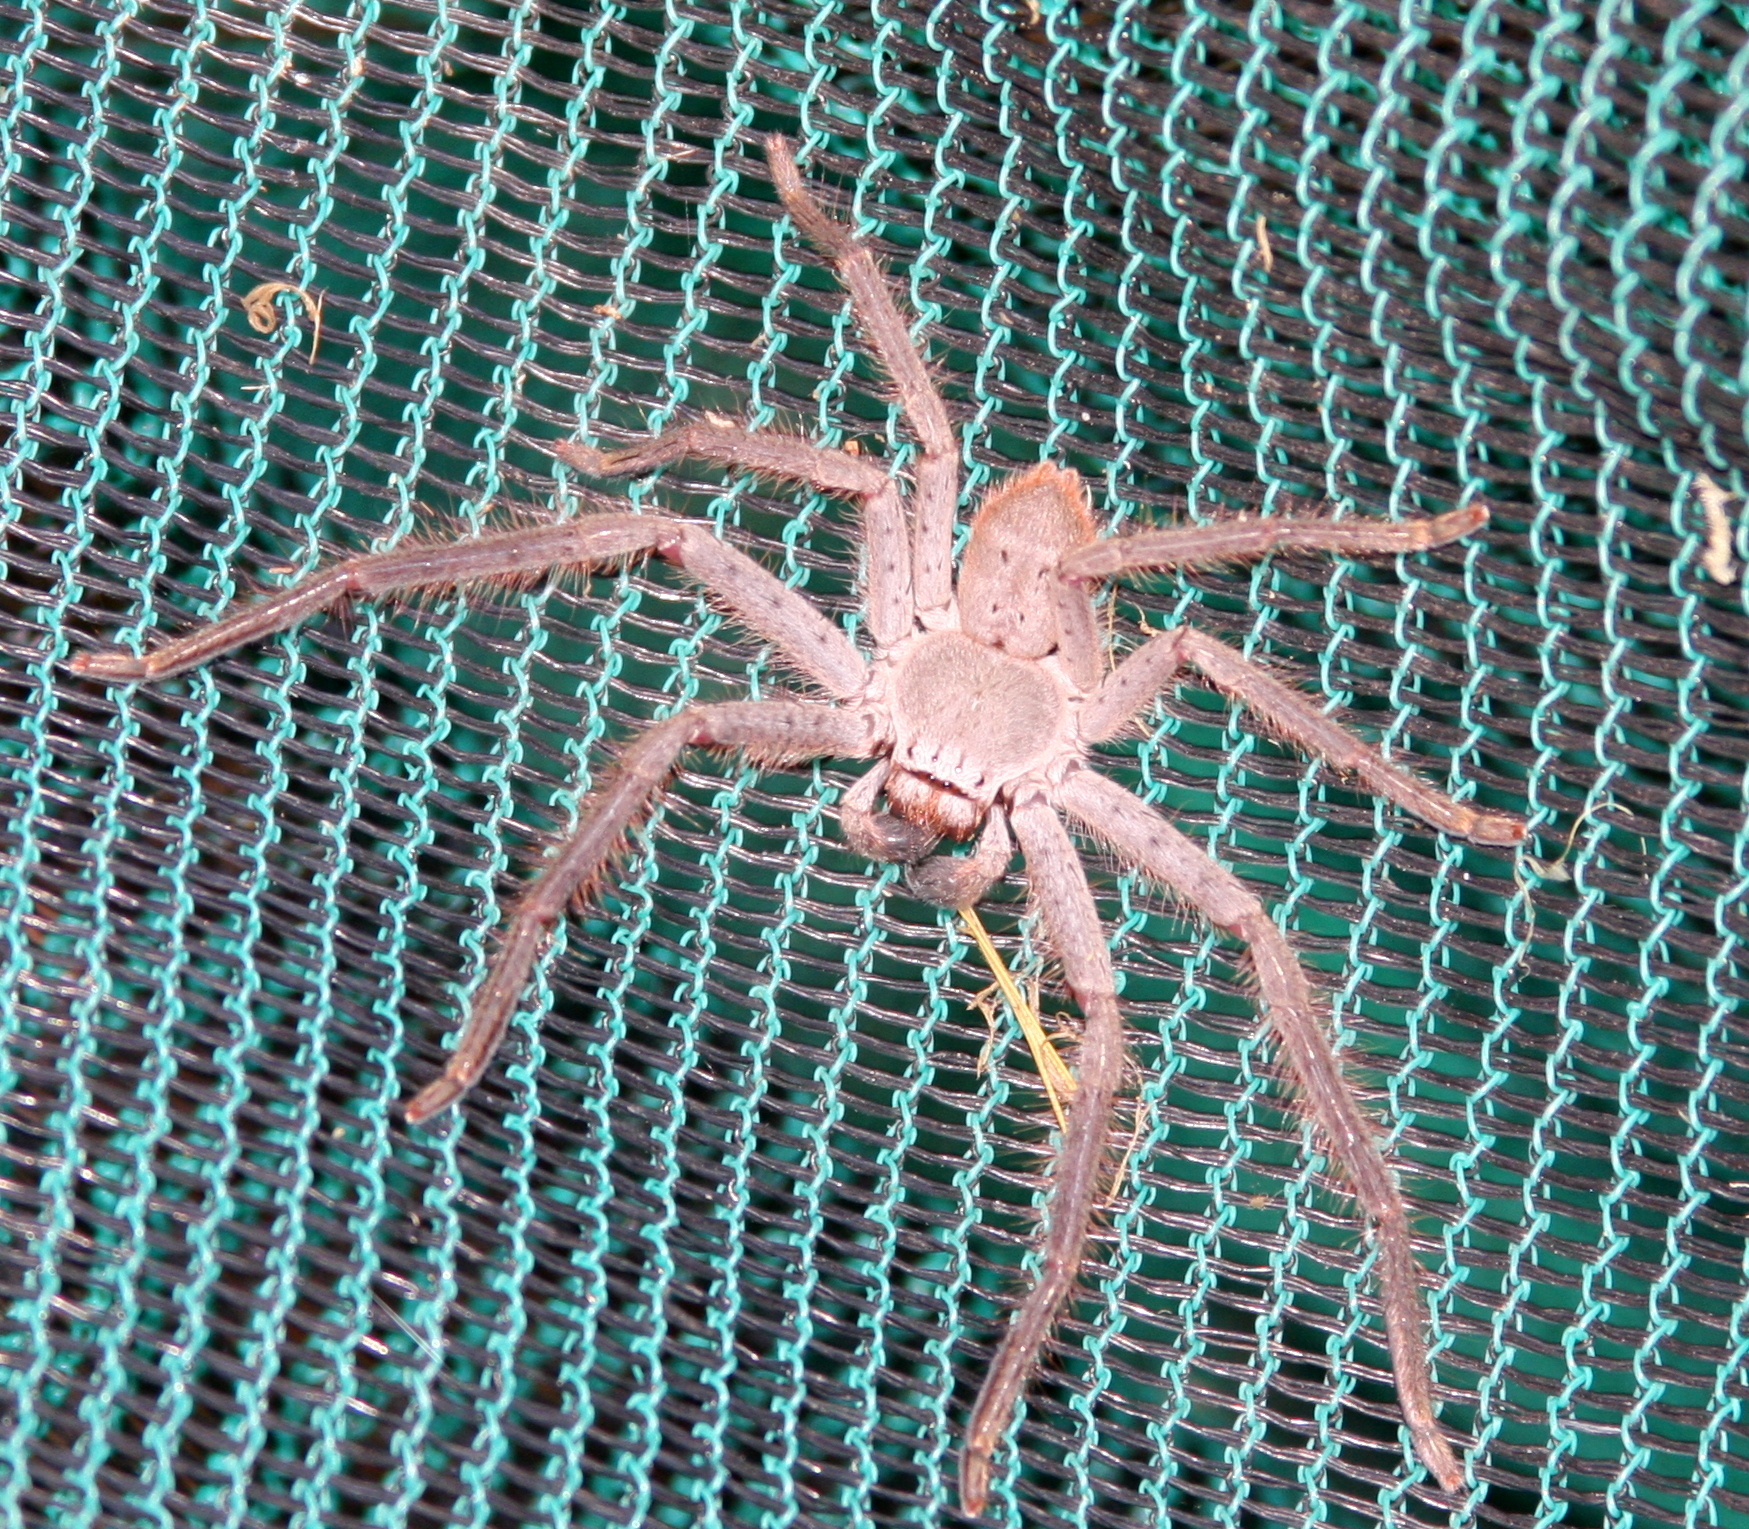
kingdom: Animalia
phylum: Arthropoda
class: Arachnida
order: Araneae
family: Sparassidae
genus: Isopeda
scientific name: Isopeda villosa
